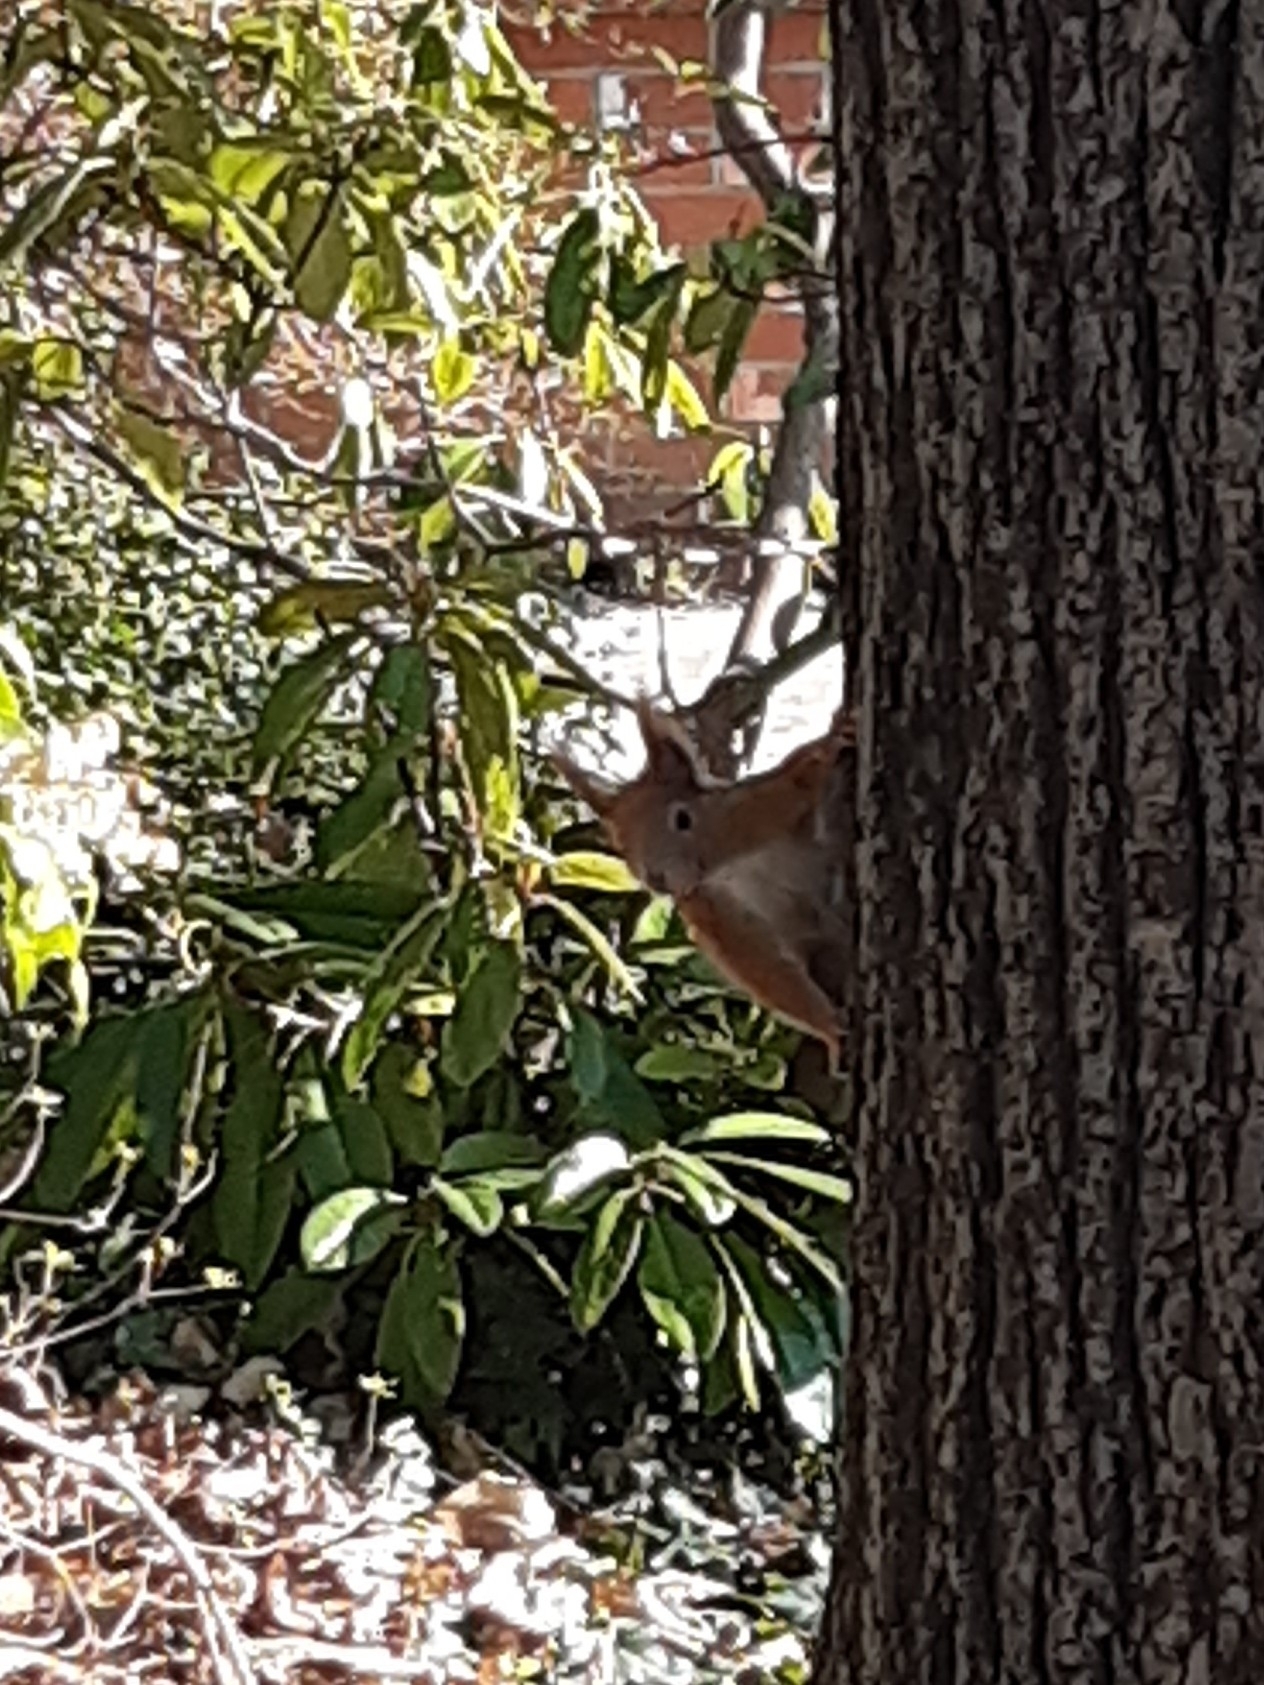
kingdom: Animalia
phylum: Chordata
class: Mammalia
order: Rodentia
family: Sciuridae
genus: Sciurus
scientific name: Sciurus vulgaris
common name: Eurasian red squirrel
